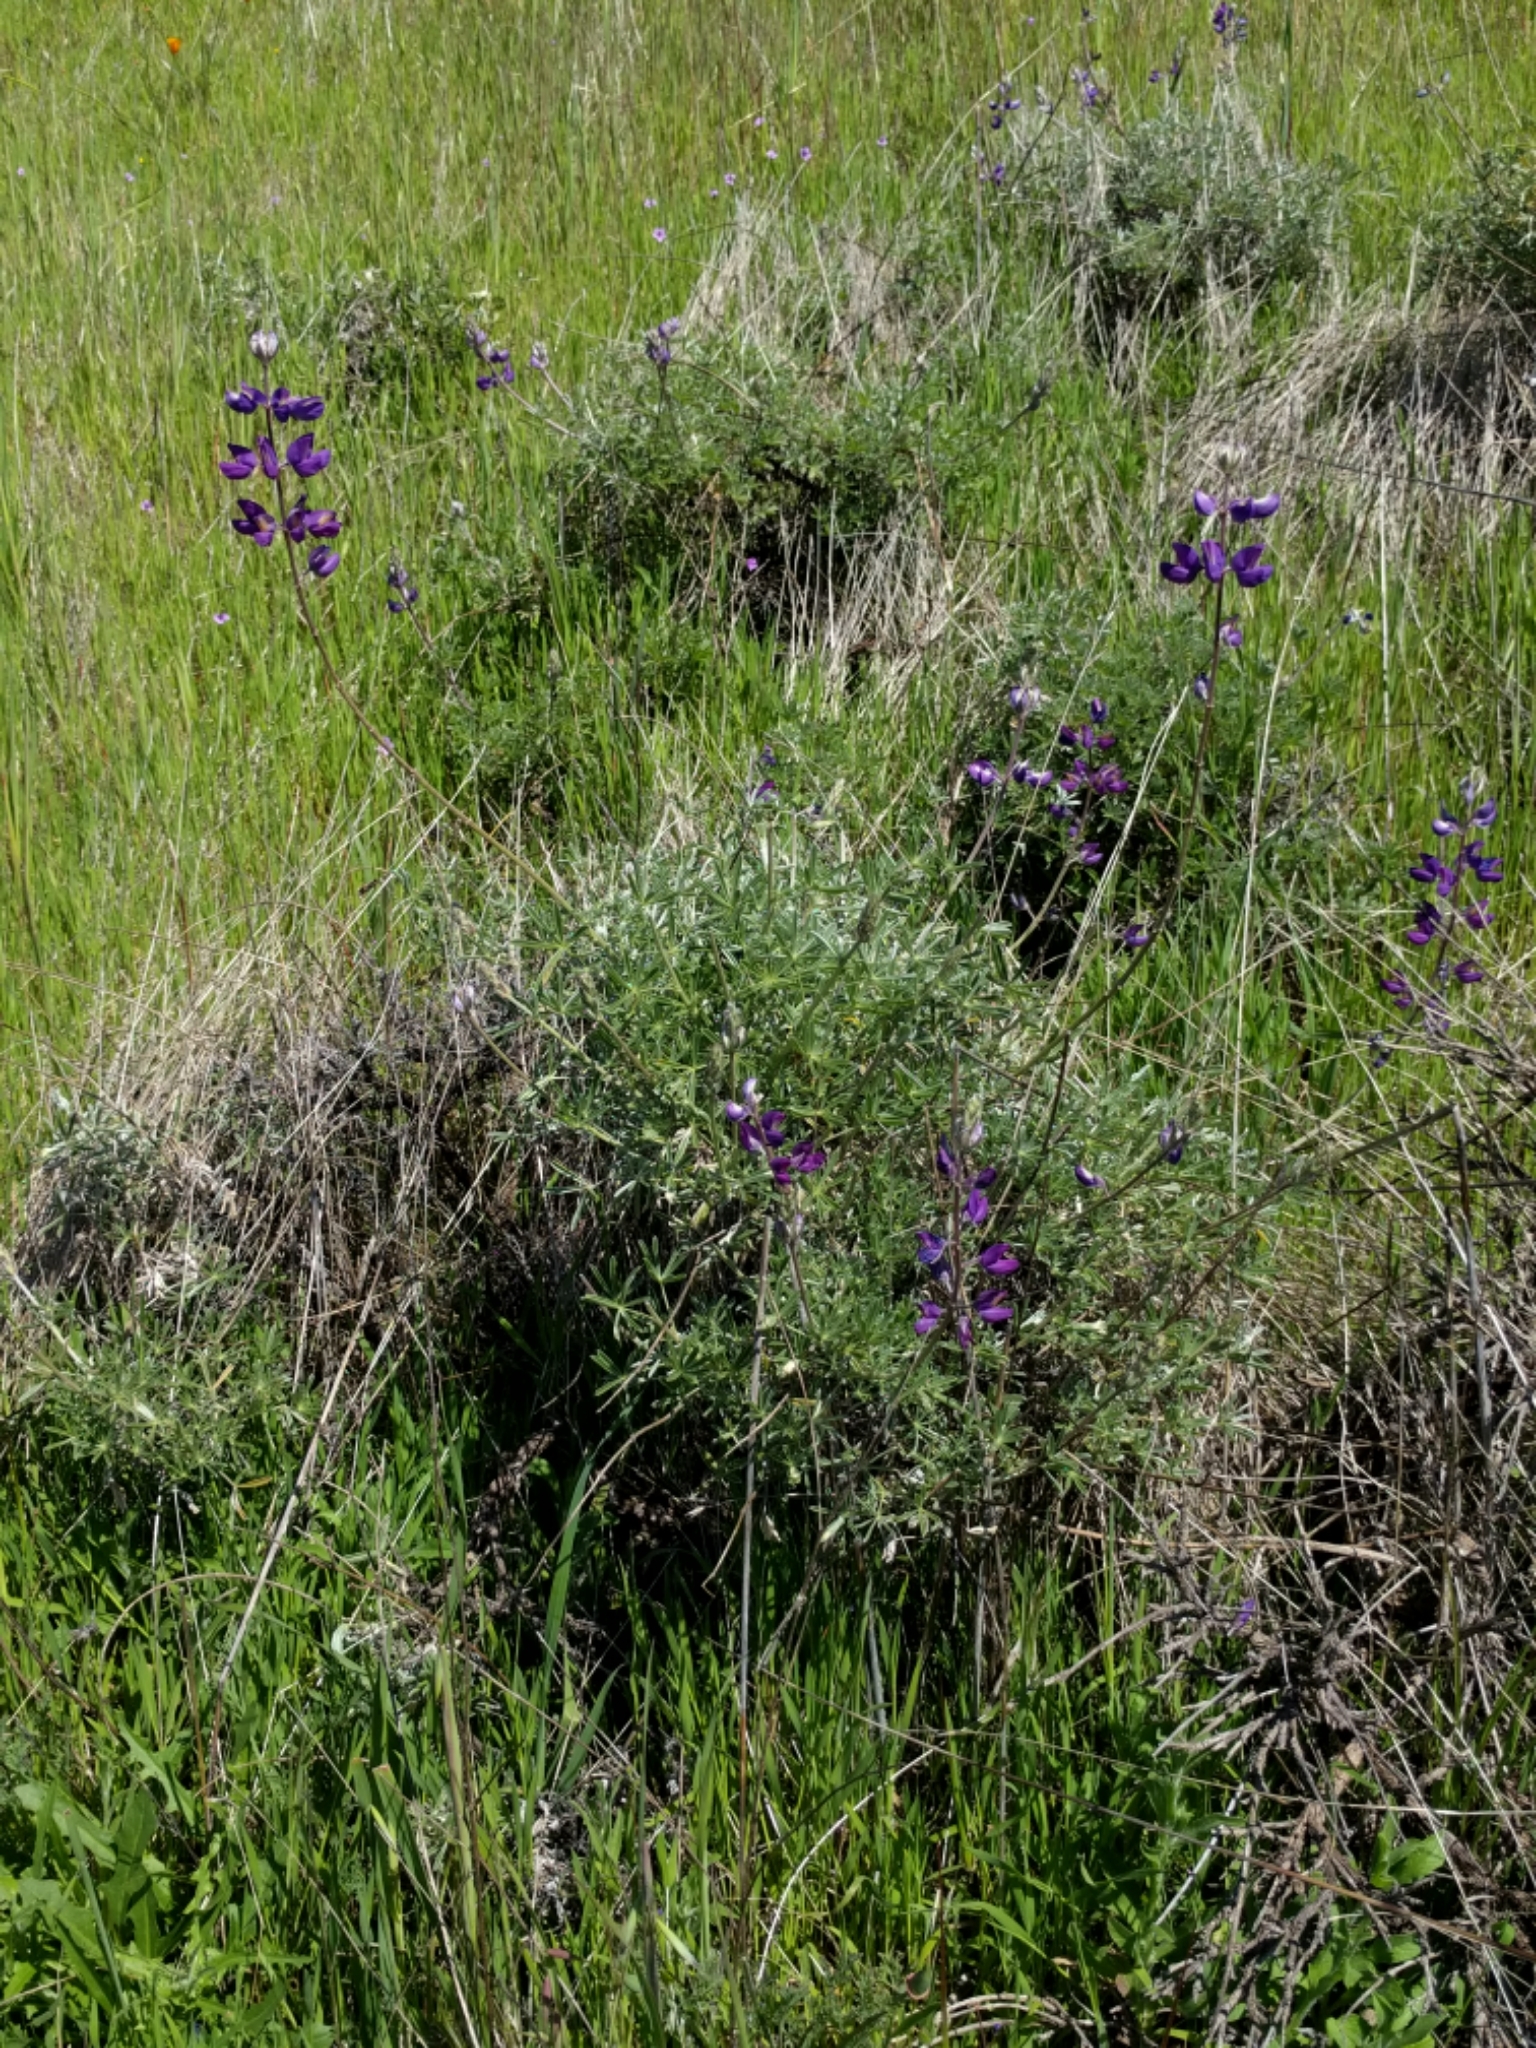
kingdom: Plantae
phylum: Tracheophyta
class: Magnoliopsida
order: Fabales
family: Fabaceae
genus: Lupinus
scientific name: Lupinus albifrons
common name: Foothill lupine
